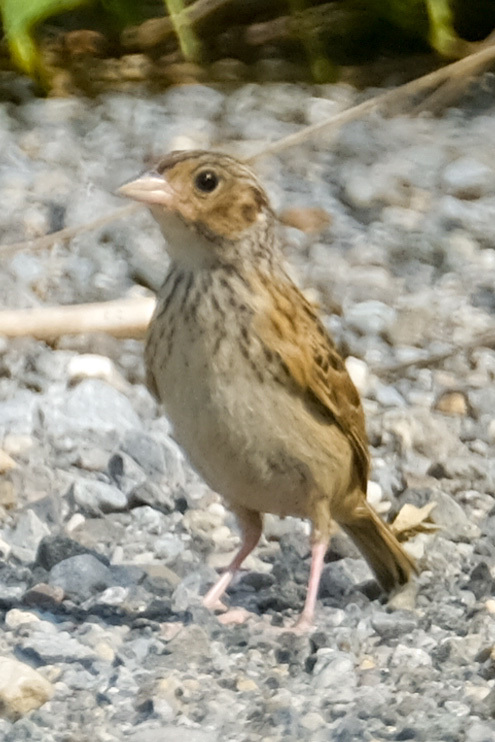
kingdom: Animalia
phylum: Chordata
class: Aves
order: Passeriformes
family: Passerellidae
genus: Ammodramus
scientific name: Ammodramus savannarum
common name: Grasshopper sparrow
